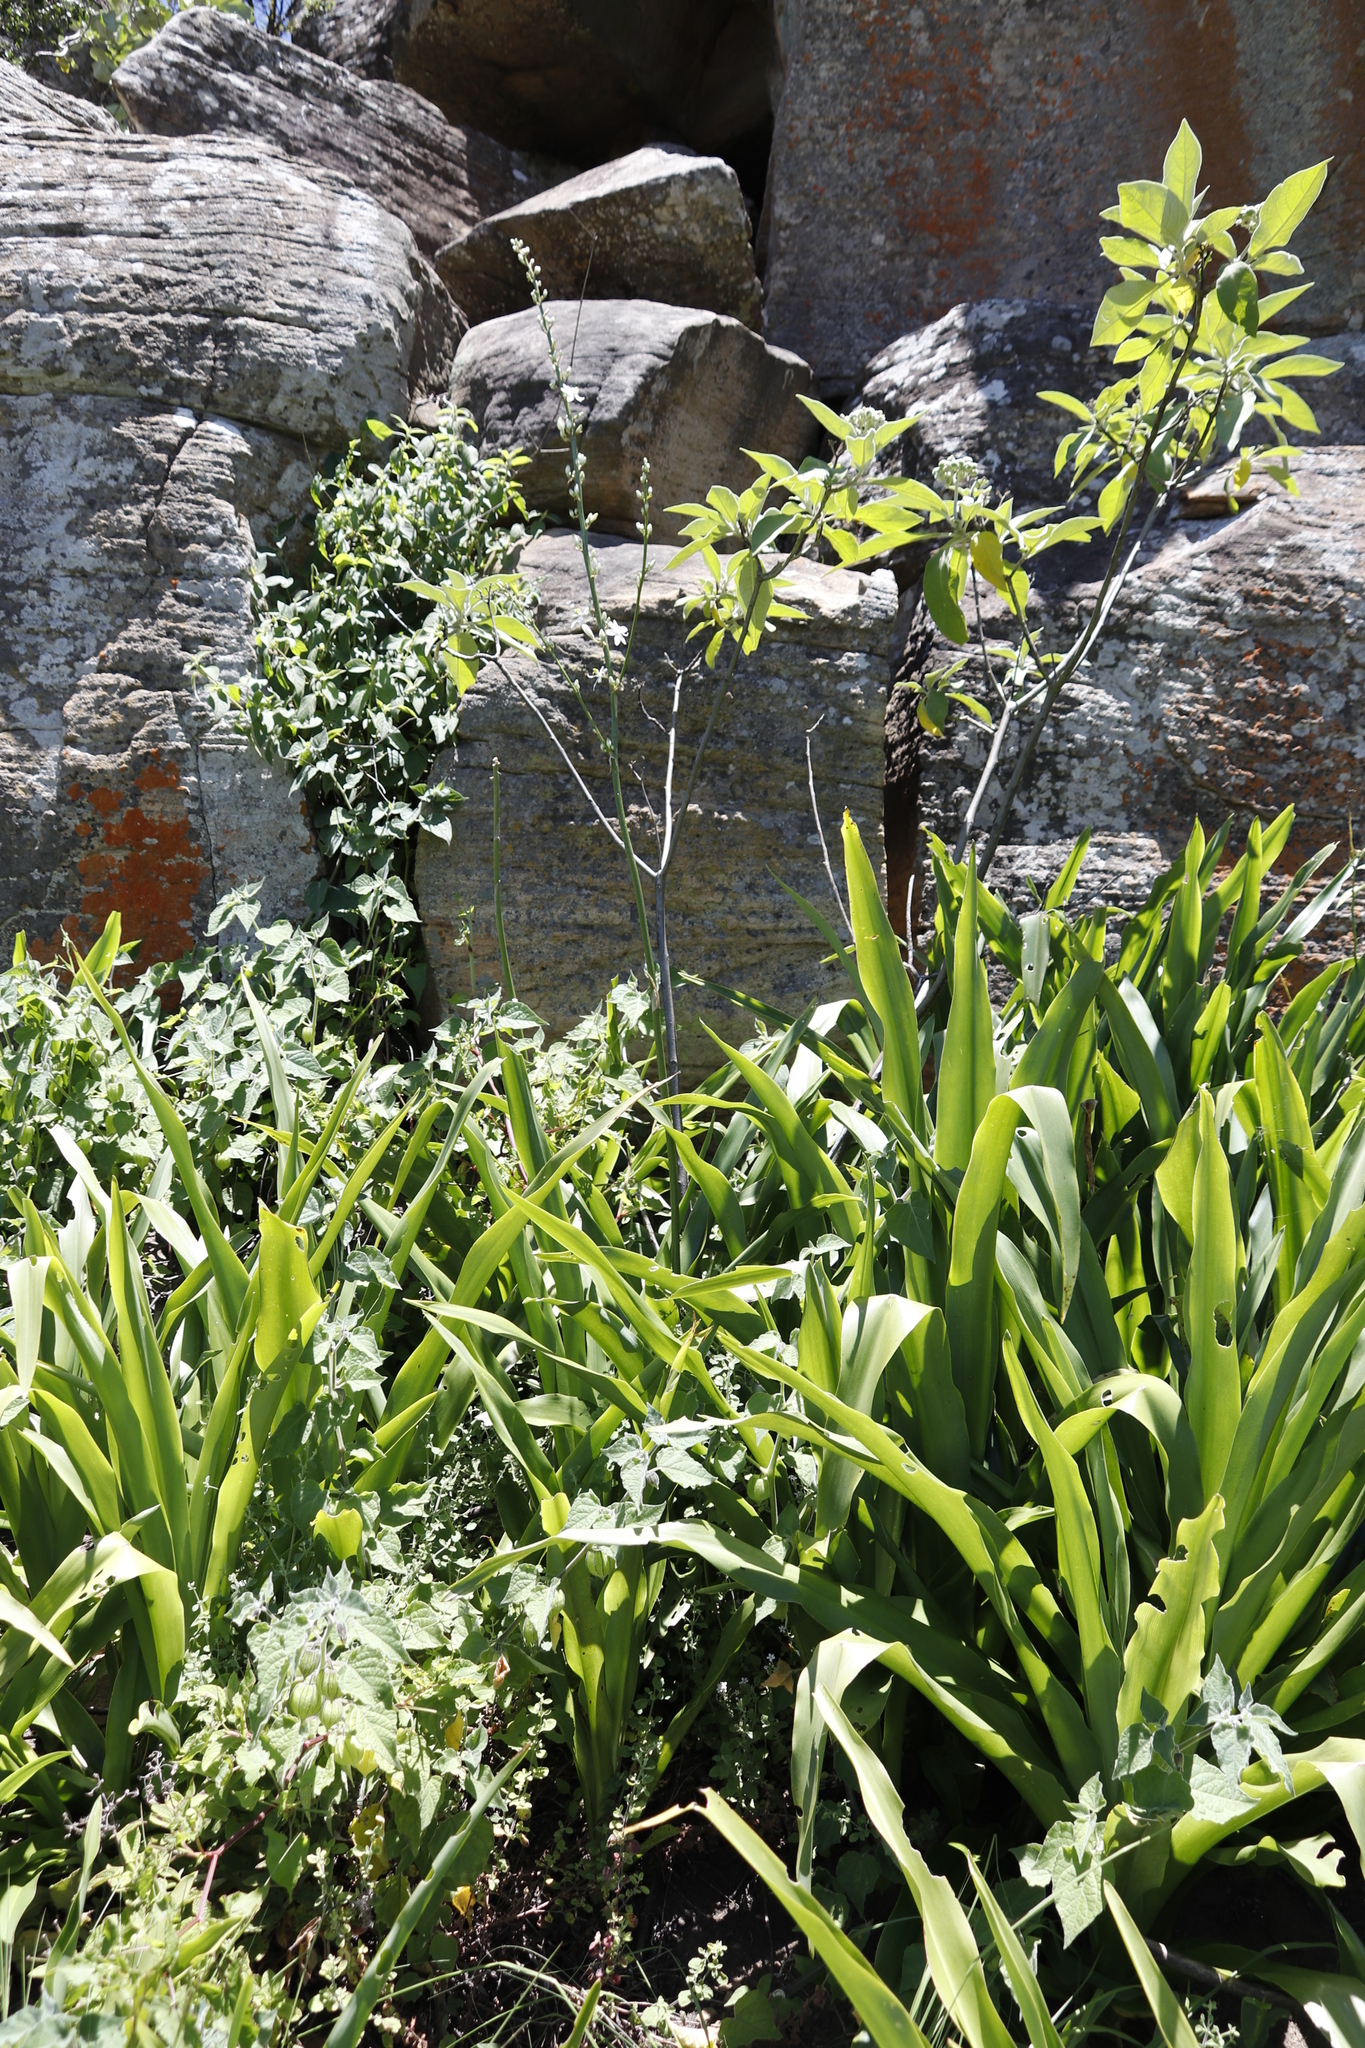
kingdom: Plantae
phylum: Tracheophyta
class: Magnoliopsida
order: Solanales
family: Solanaceae
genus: Solanum
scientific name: Solanum mauritianum
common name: Earleaf nightshade
